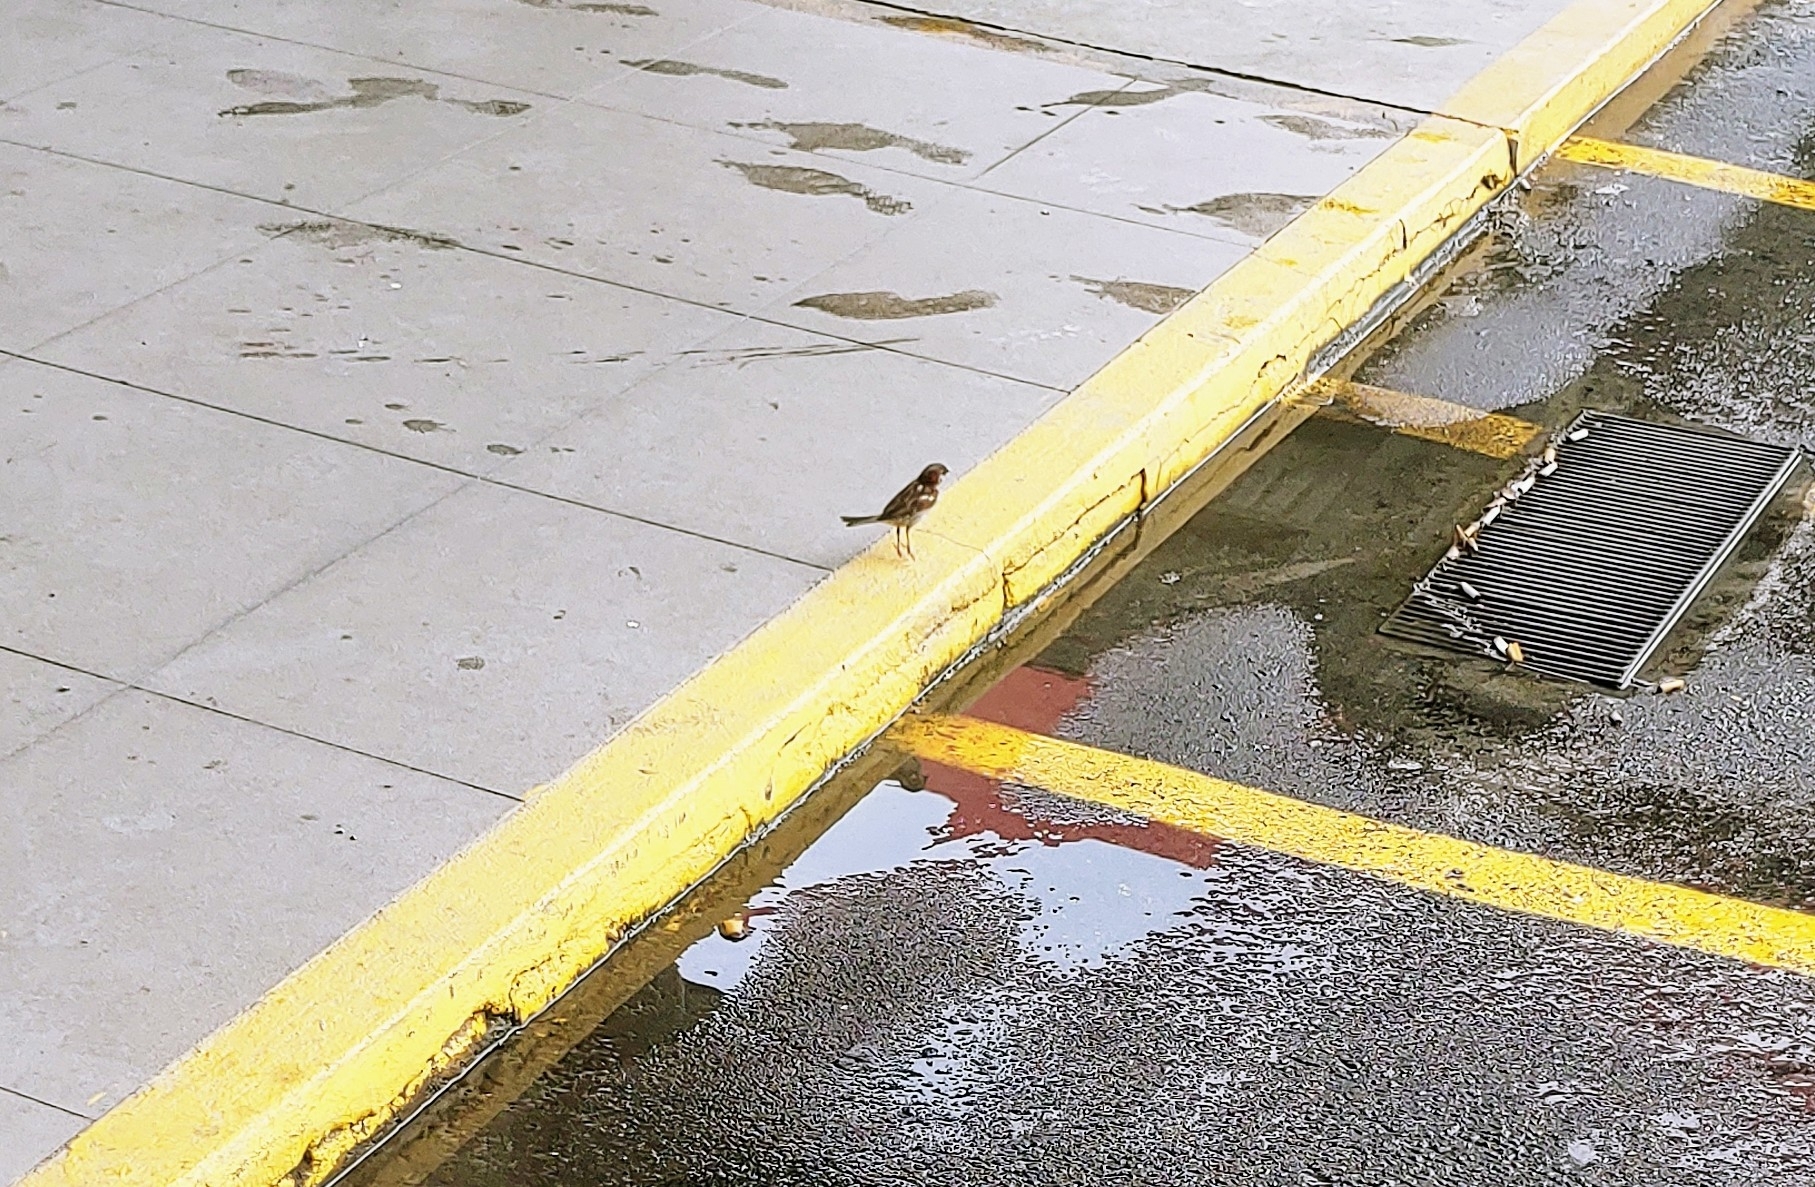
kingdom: Animalia
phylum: Chordata
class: Aves
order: Passeriformes
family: Passeridae
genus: Passer
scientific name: Passer domesticus
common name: House sparrow
